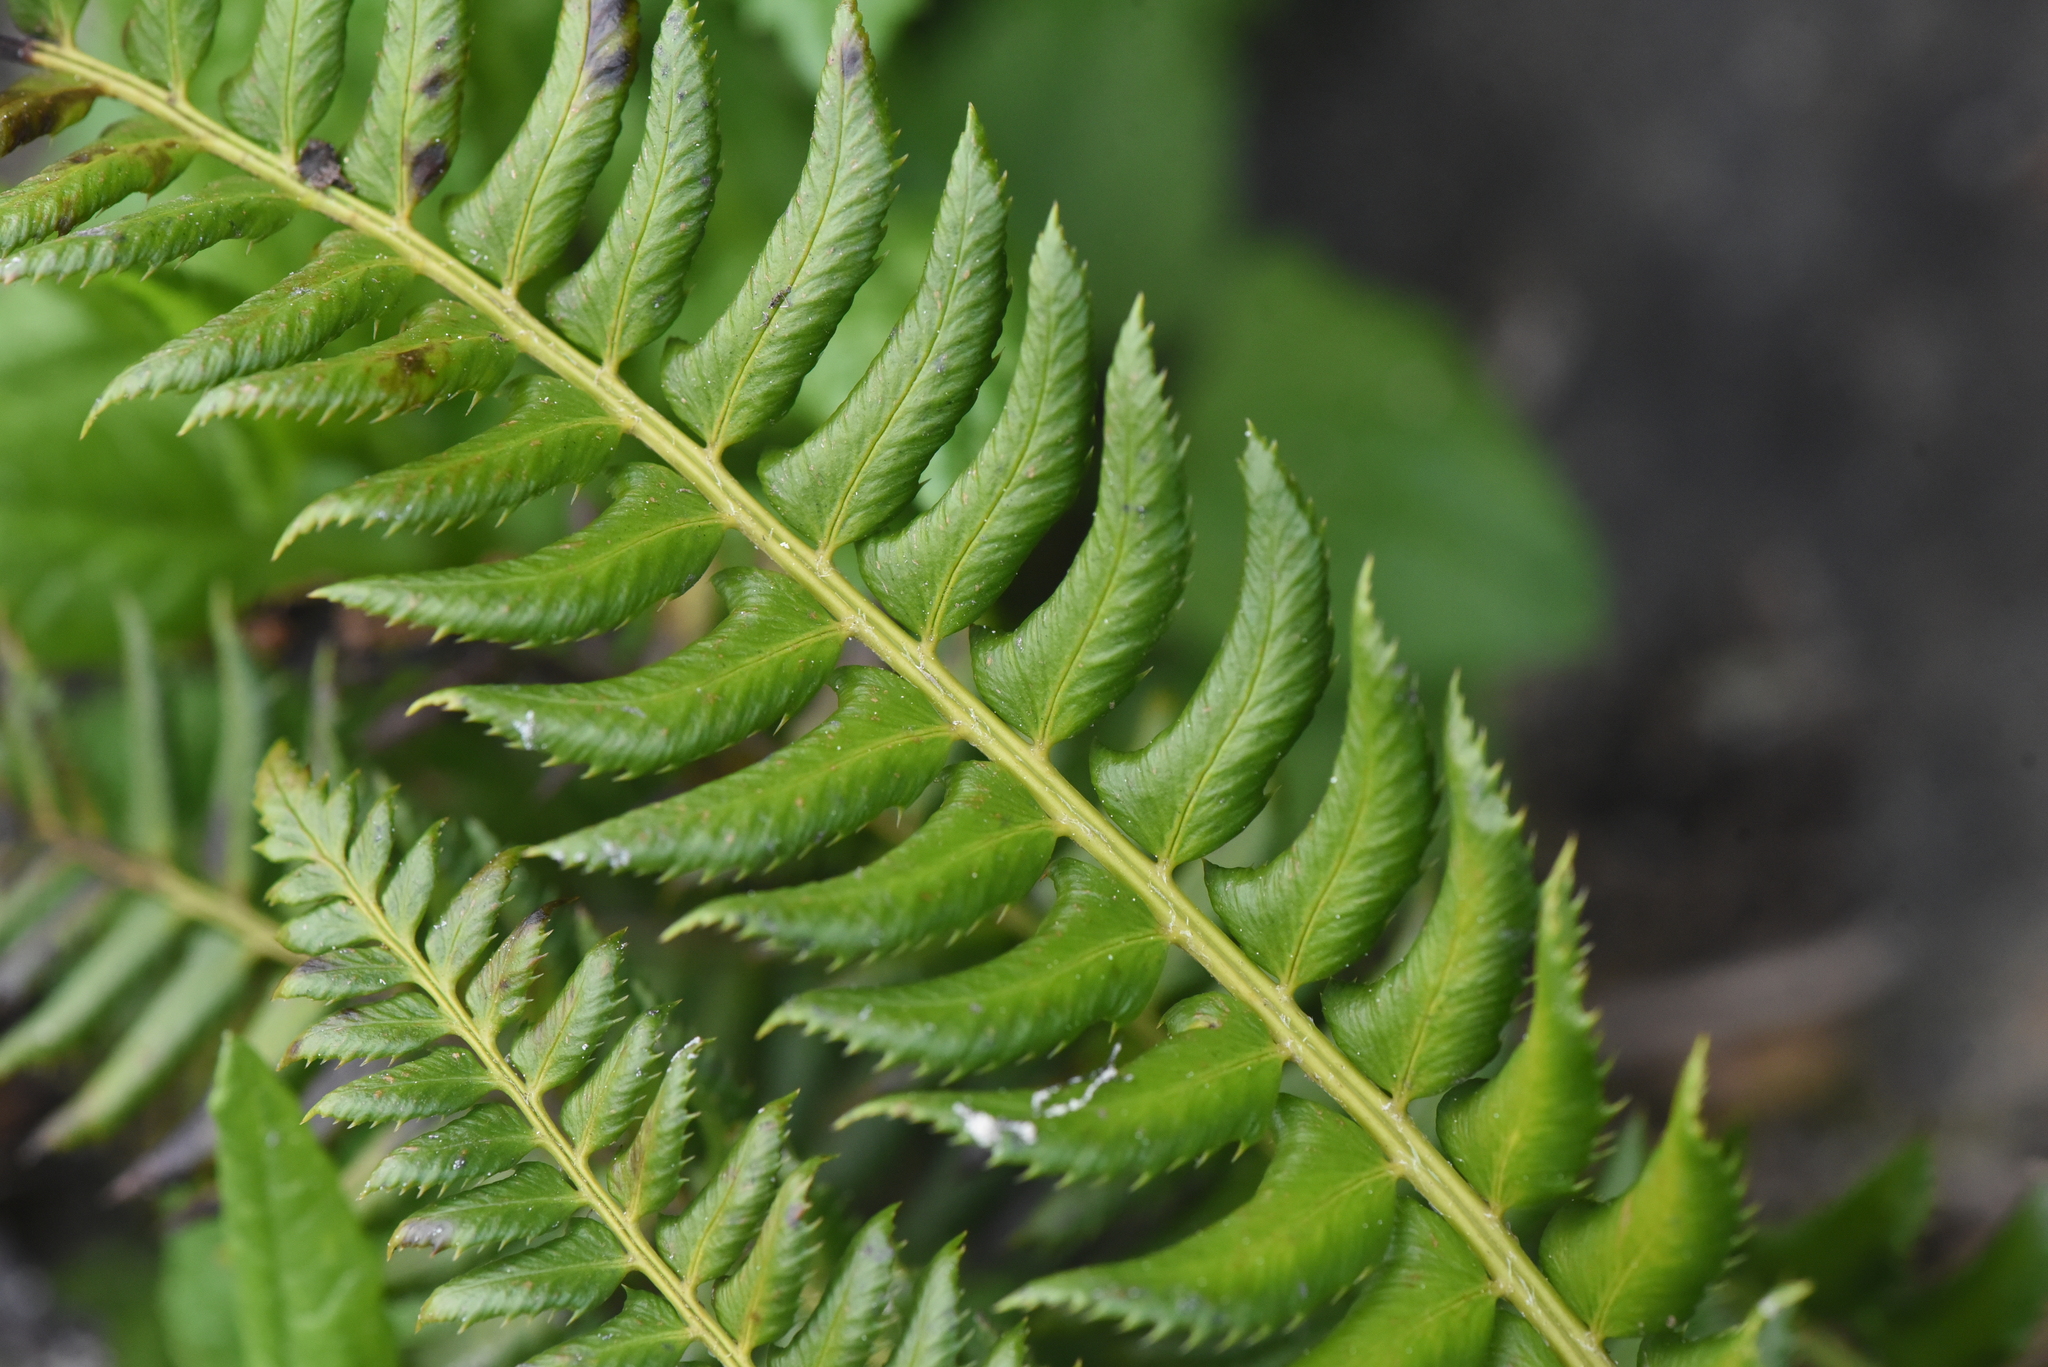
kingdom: Plantae
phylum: Tracheophyta
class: Polypodiopsida
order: Polypodiales
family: Dryopteridaceae
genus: Polystichum
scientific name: Polystichum lonchitis
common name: Holly fern
